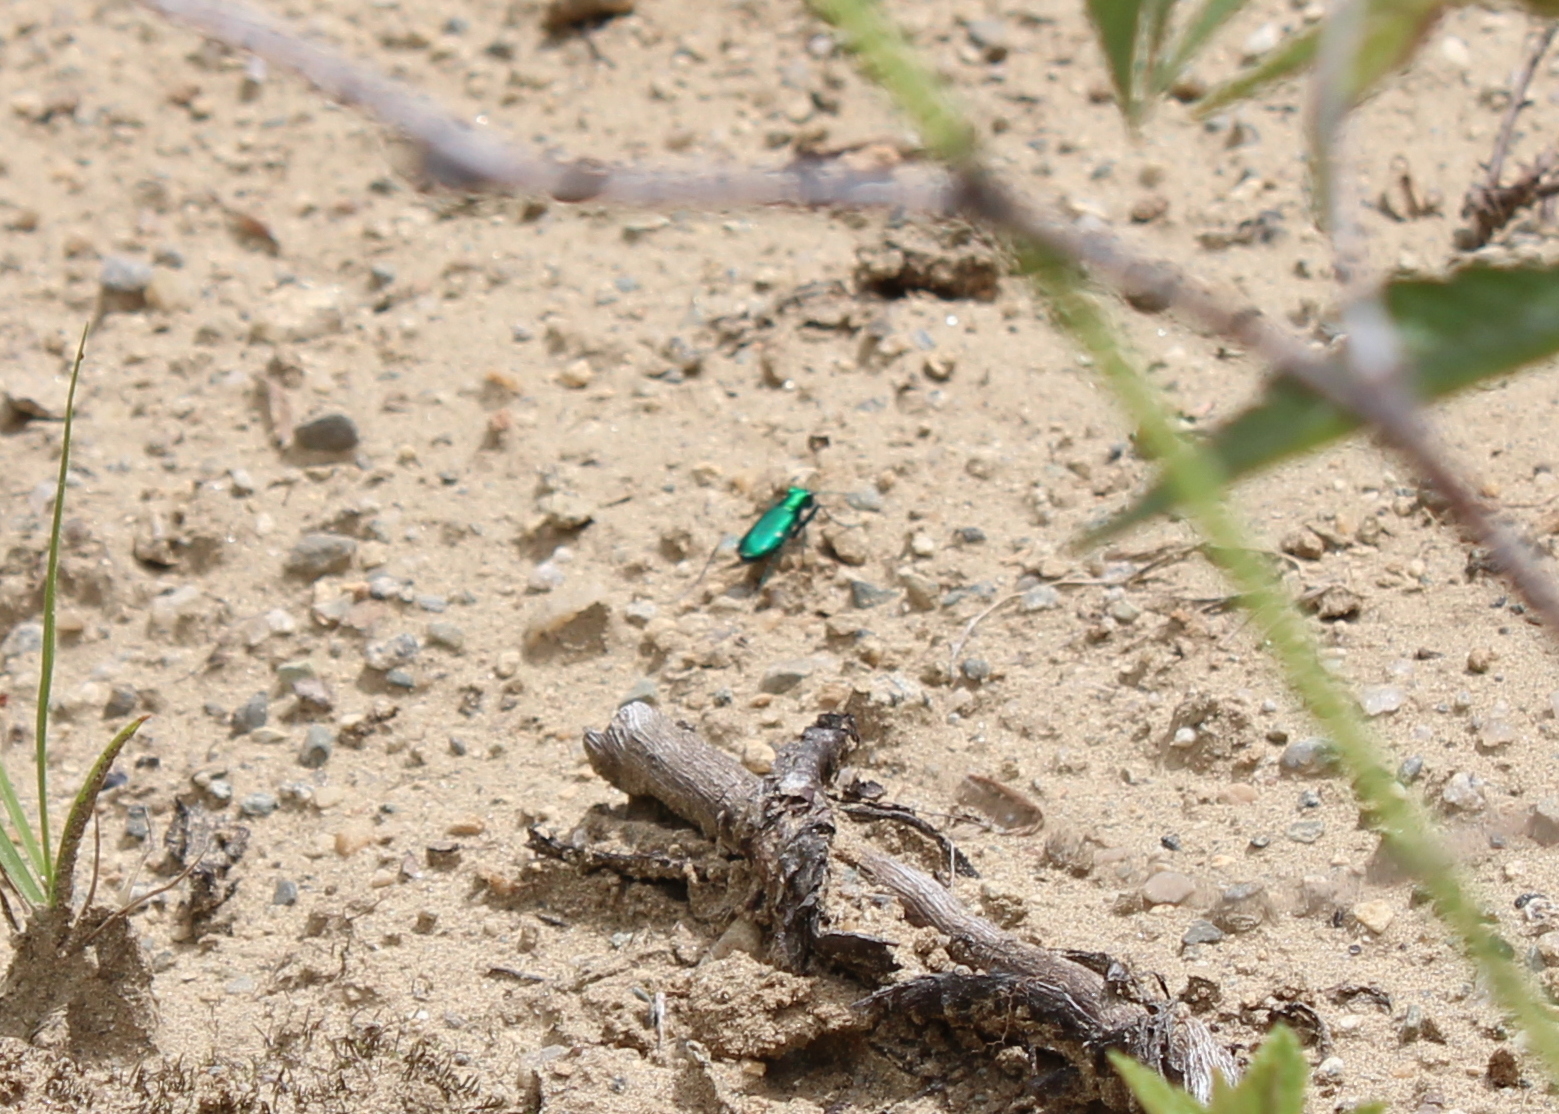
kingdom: Animalia
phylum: Arthropoda
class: Insecta
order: Coleoptera
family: Carabidae
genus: Cicindela
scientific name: Cicindela sexguttata
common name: Six-spotted tiger beetle
